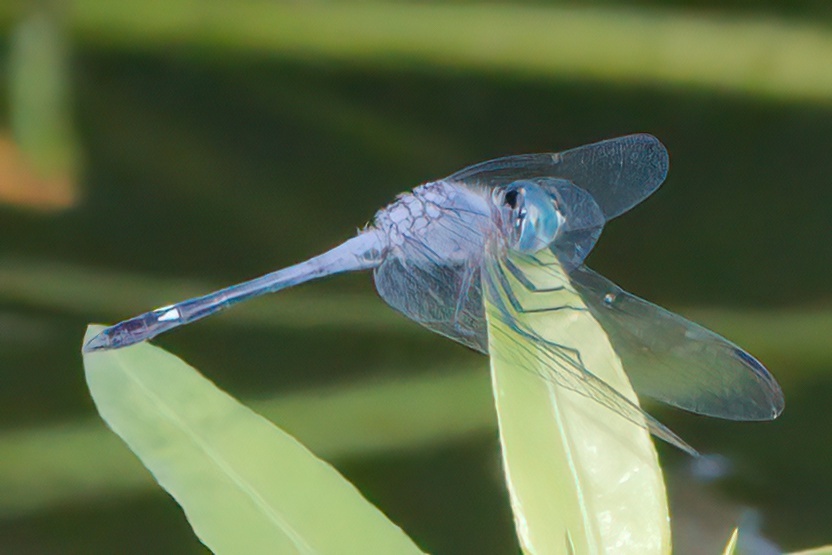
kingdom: Animalia
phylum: Arthropoda
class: Insecta
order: Odonata
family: Libellulidae
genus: Micrathyria
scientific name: Micrathyria aequalis
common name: Spot-tailed dasher
